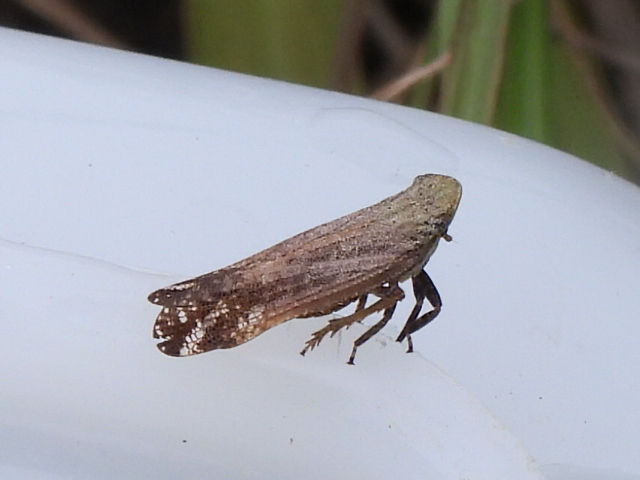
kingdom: Animalia
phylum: Arthropoda
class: Insecta
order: Hemiptera
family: Fulgoridae
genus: Cyrpoptus
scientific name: Cyrpoptus reineckei
